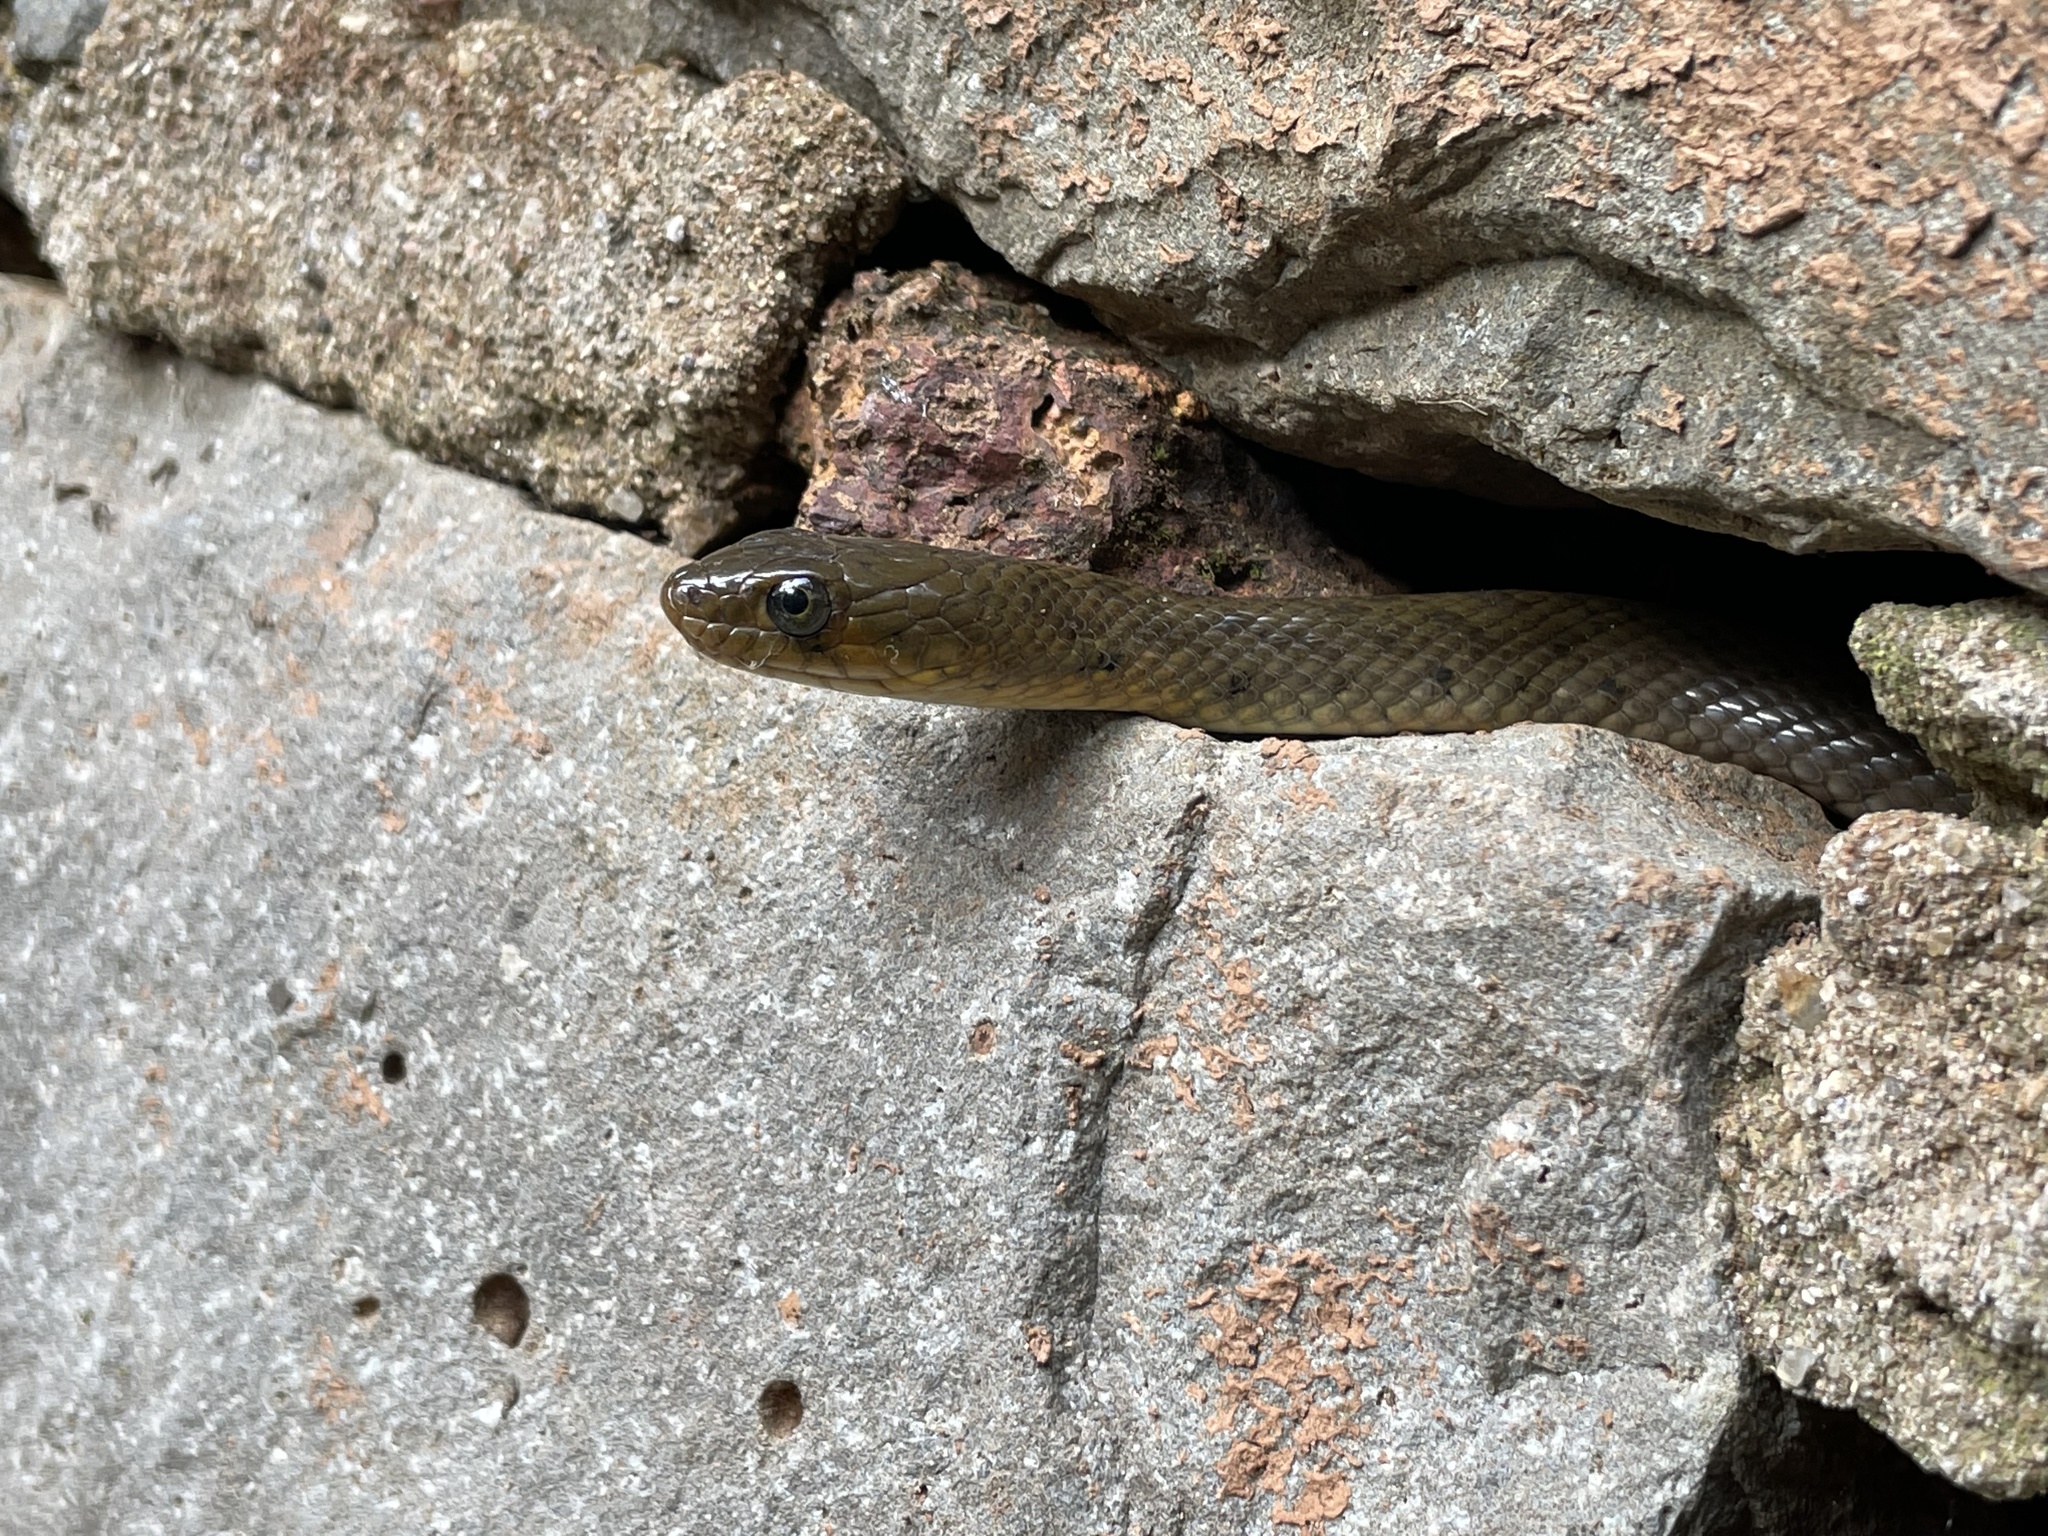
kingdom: Animalia
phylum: Chordata
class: Squamata
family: Colubridae
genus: Fowlea
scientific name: Fowlea piscator
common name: Asiatic water snake
